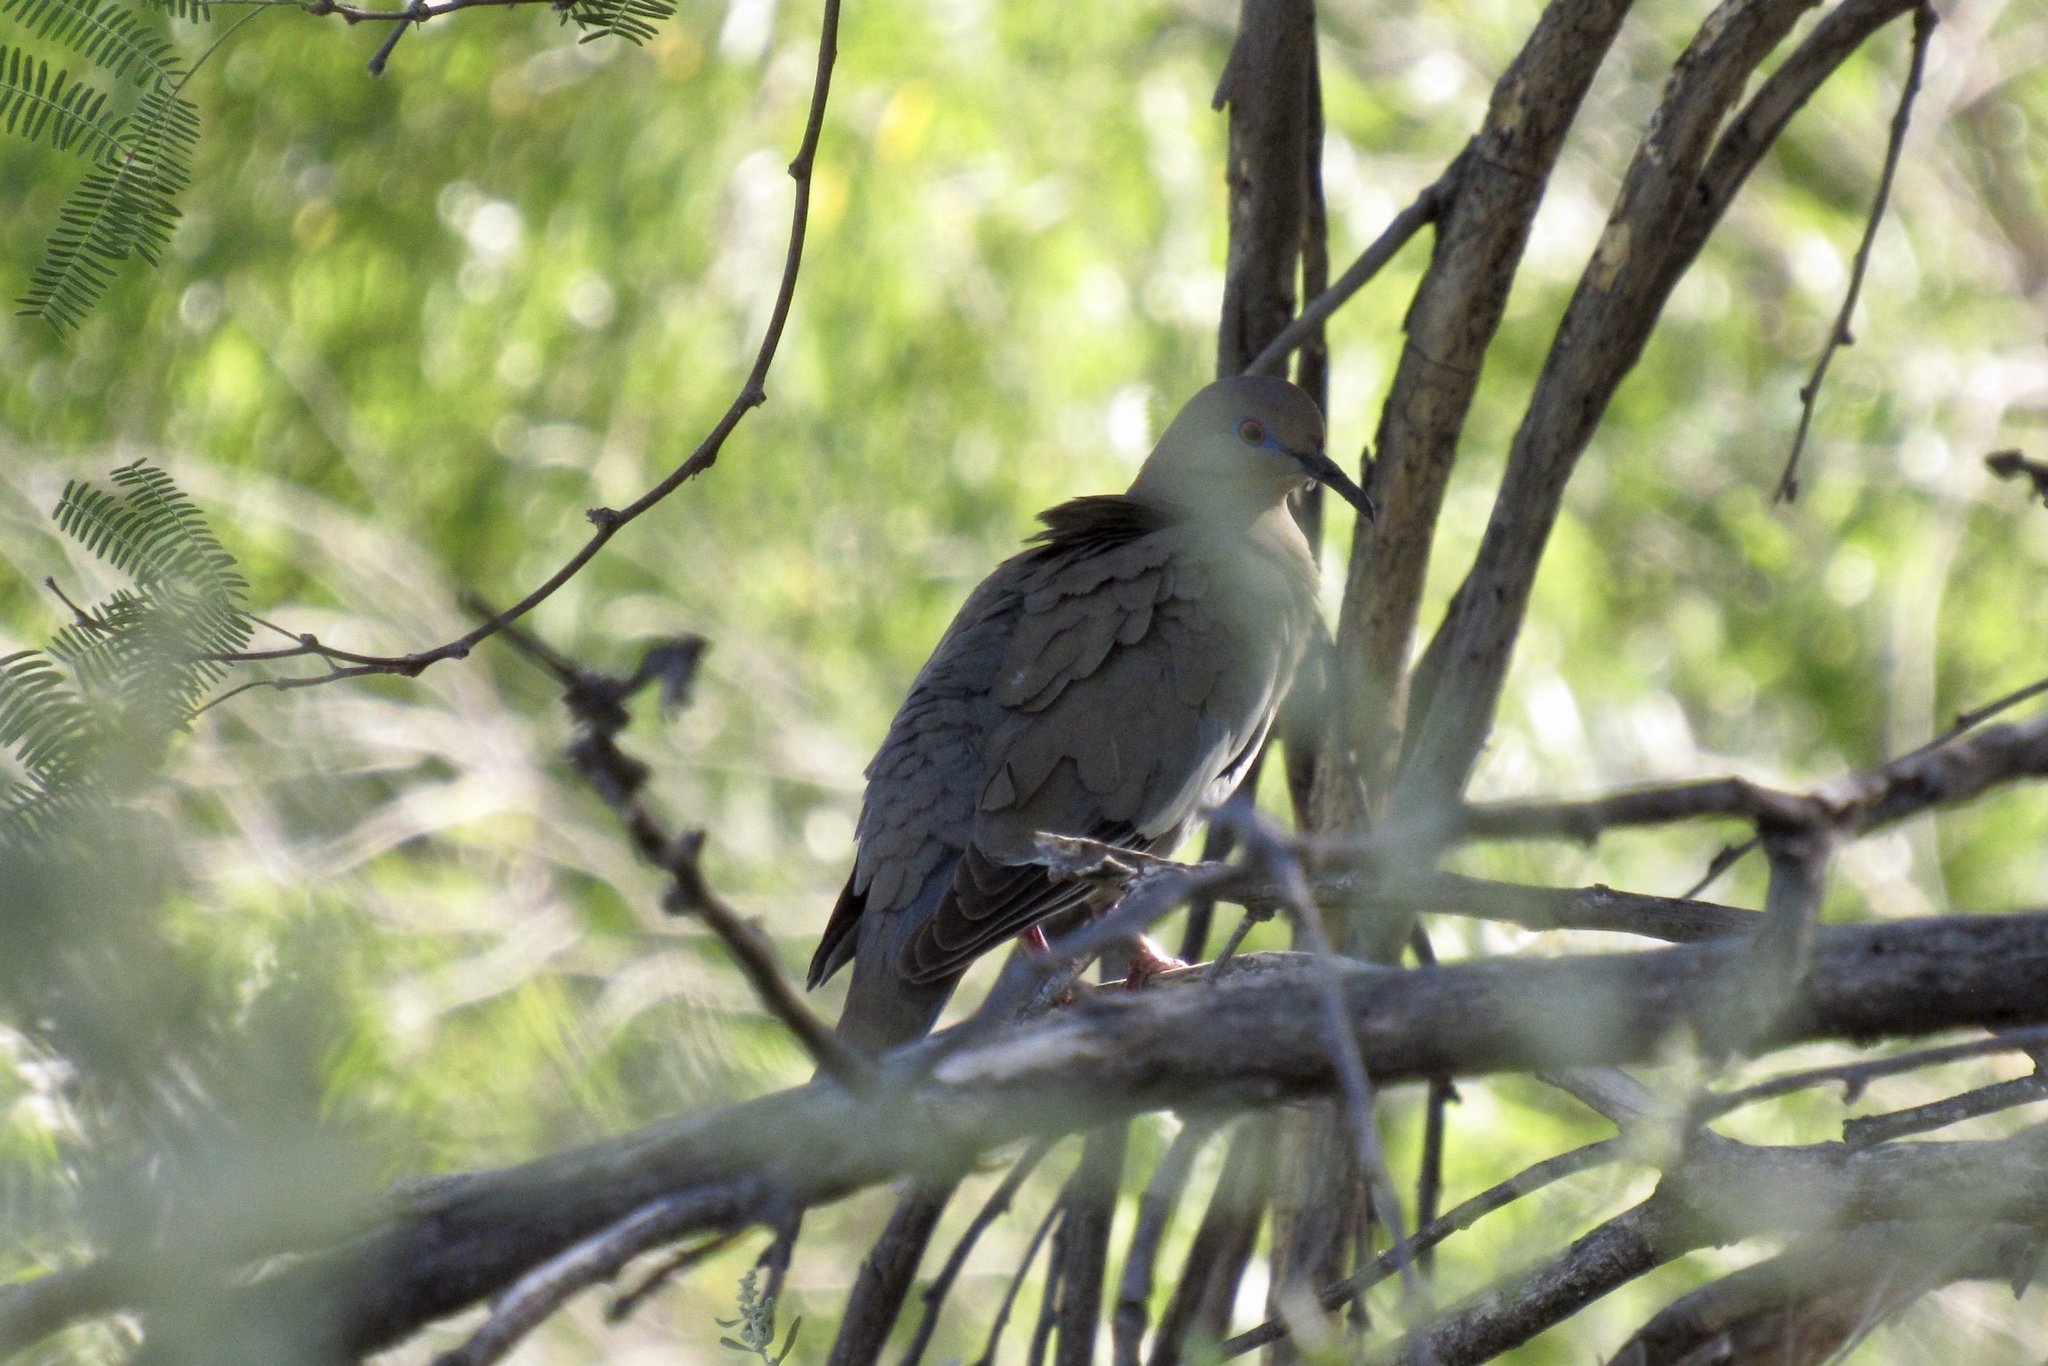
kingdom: Animalia
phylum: Chordata
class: Aves
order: Columbiformes
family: Columbidae
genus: Zenaida
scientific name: Zenaida asiatica
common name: White-winged dove
